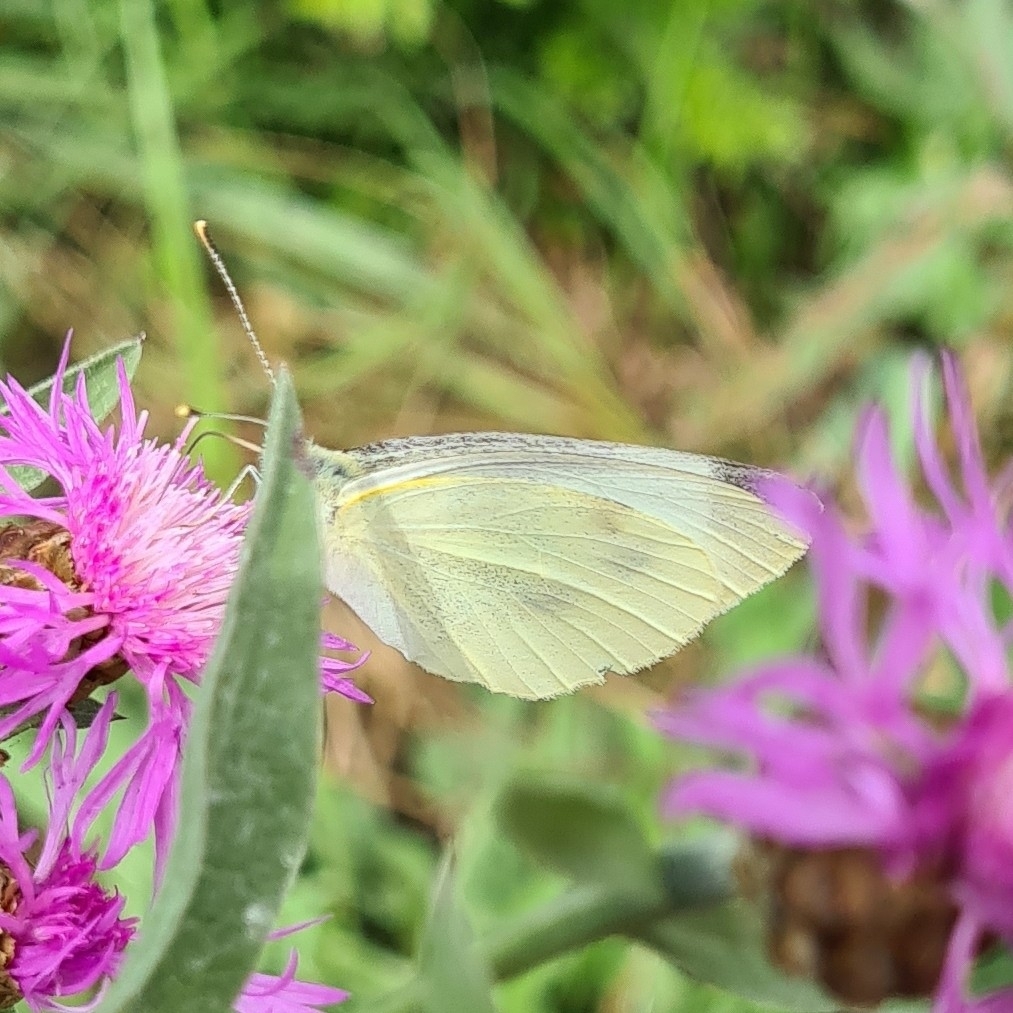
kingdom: Animalia
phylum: Arthropoda
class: Insecta
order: Lepidoptera
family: Pieridae
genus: Pieris
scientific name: Pieris rapae
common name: Small white
